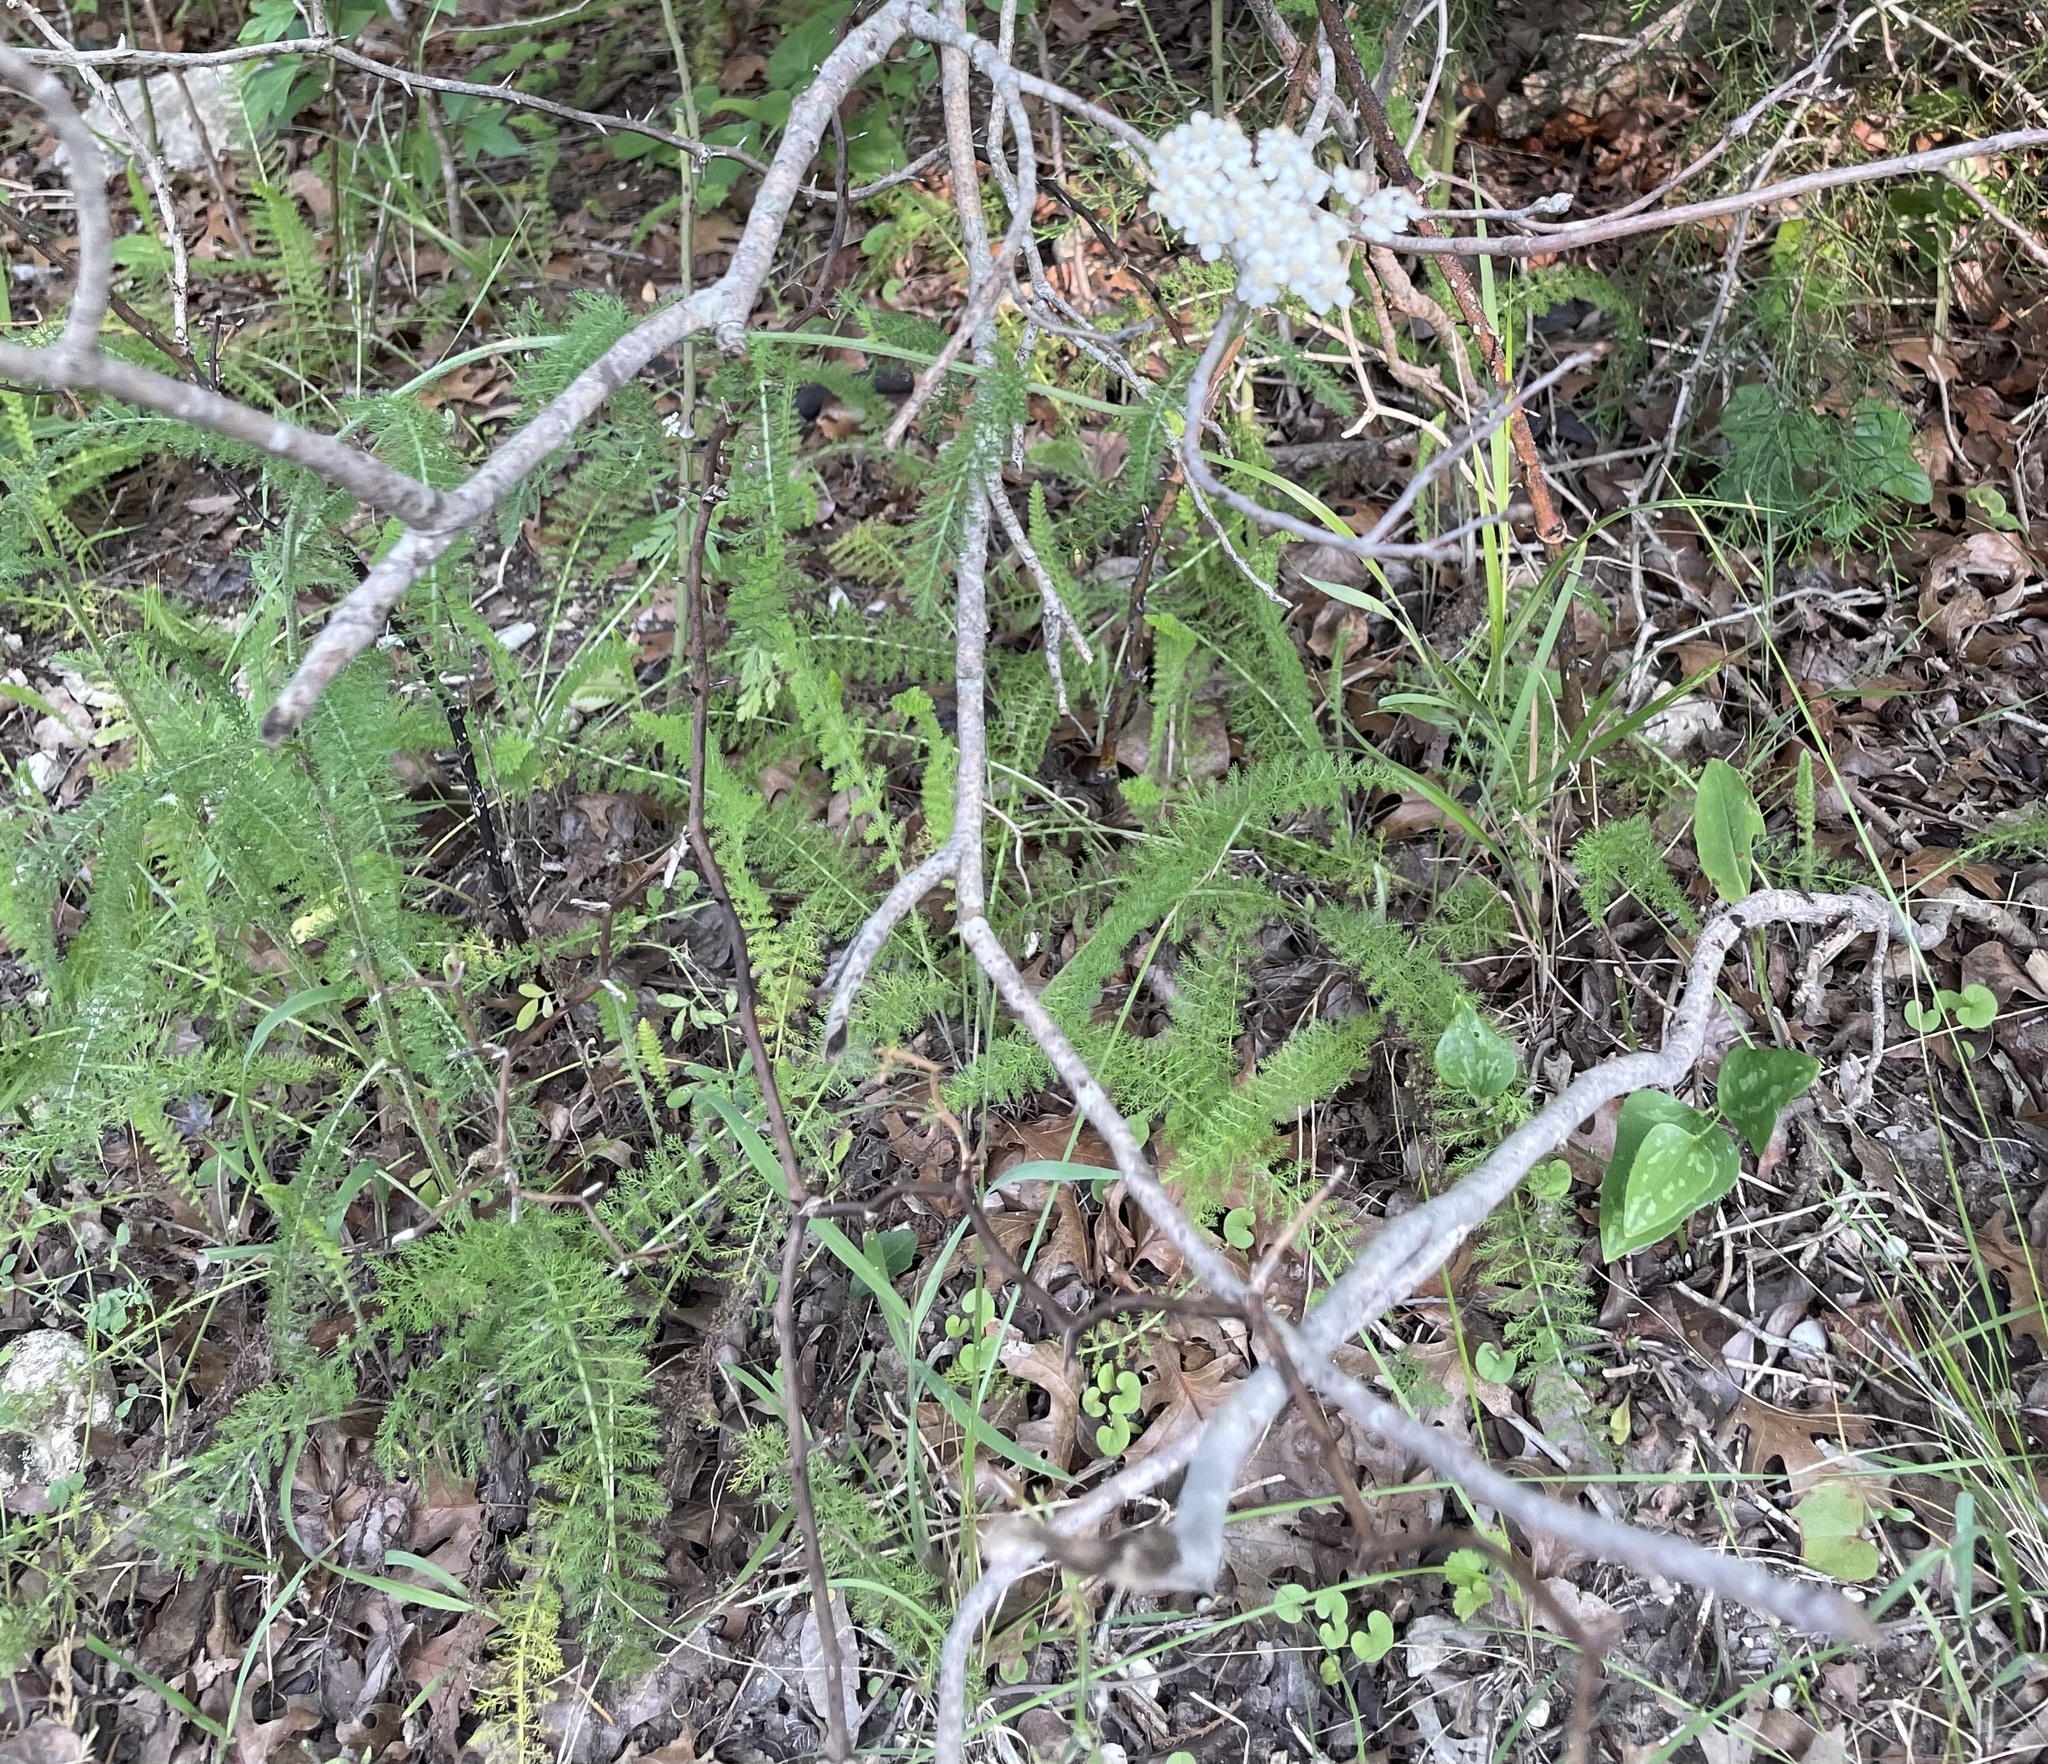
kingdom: Plantae
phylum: Tracheophyta
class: Magnoliopsida
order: Asterales
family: Asteraceae
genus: Achillea
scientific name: Achillea millefolium
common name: Yarrow
